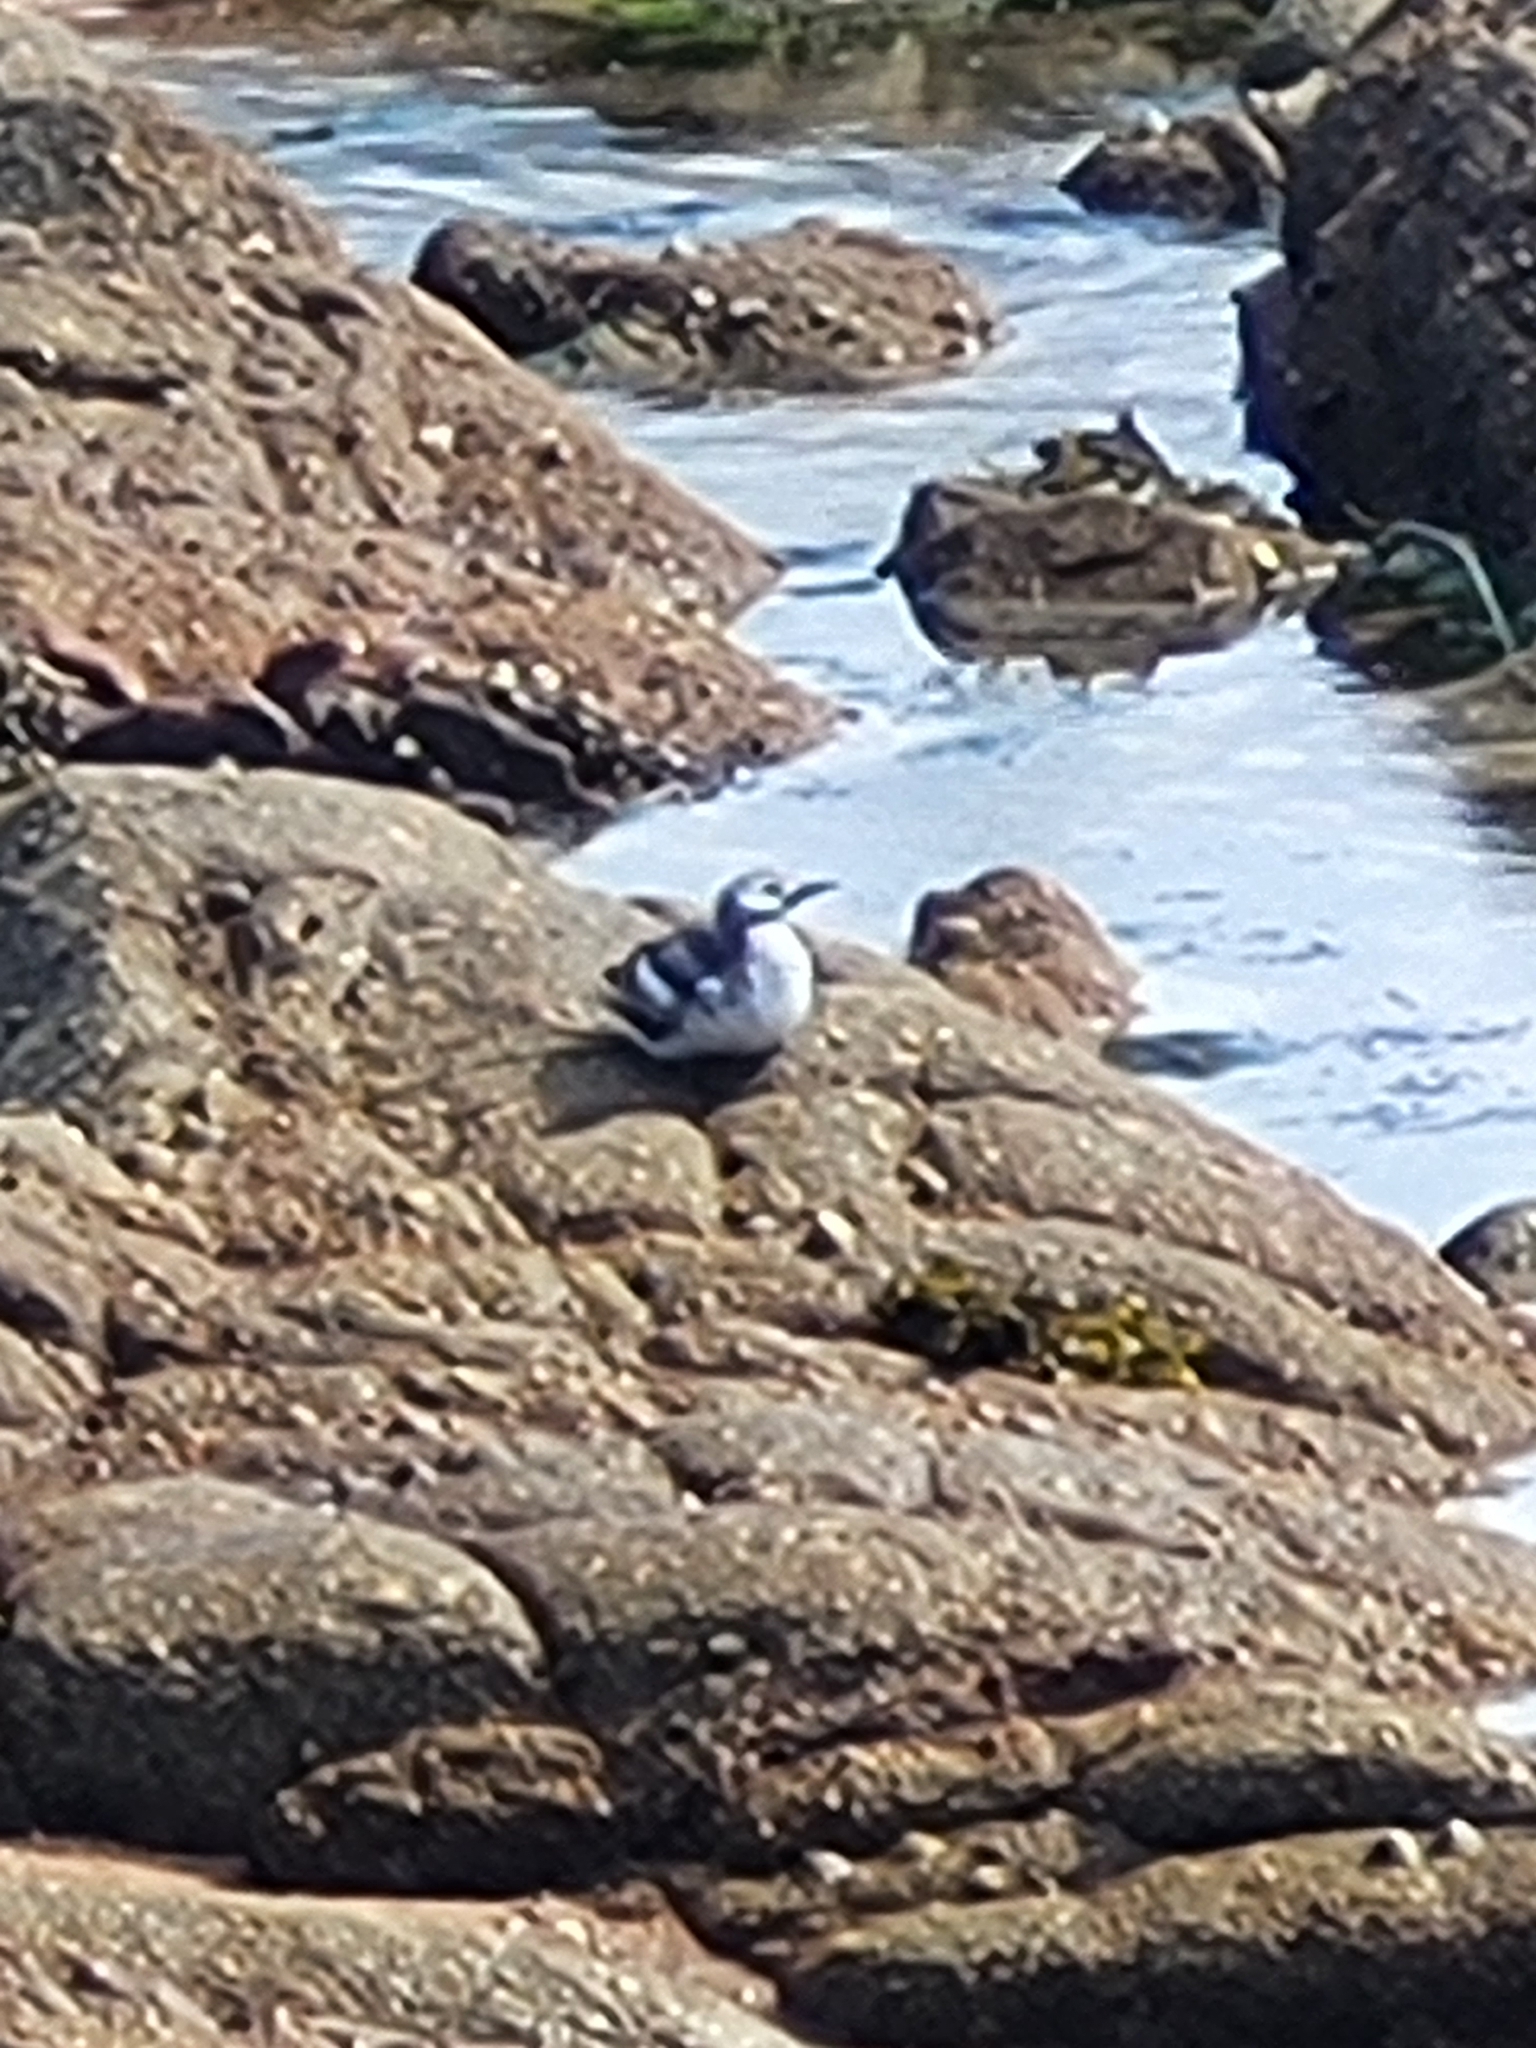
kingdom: Animalia
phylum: Chordata
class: Aves
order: Charadriiformes
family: Alcidae
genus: Cepphus
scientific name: Cepphus grylle
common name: Black guillemot
